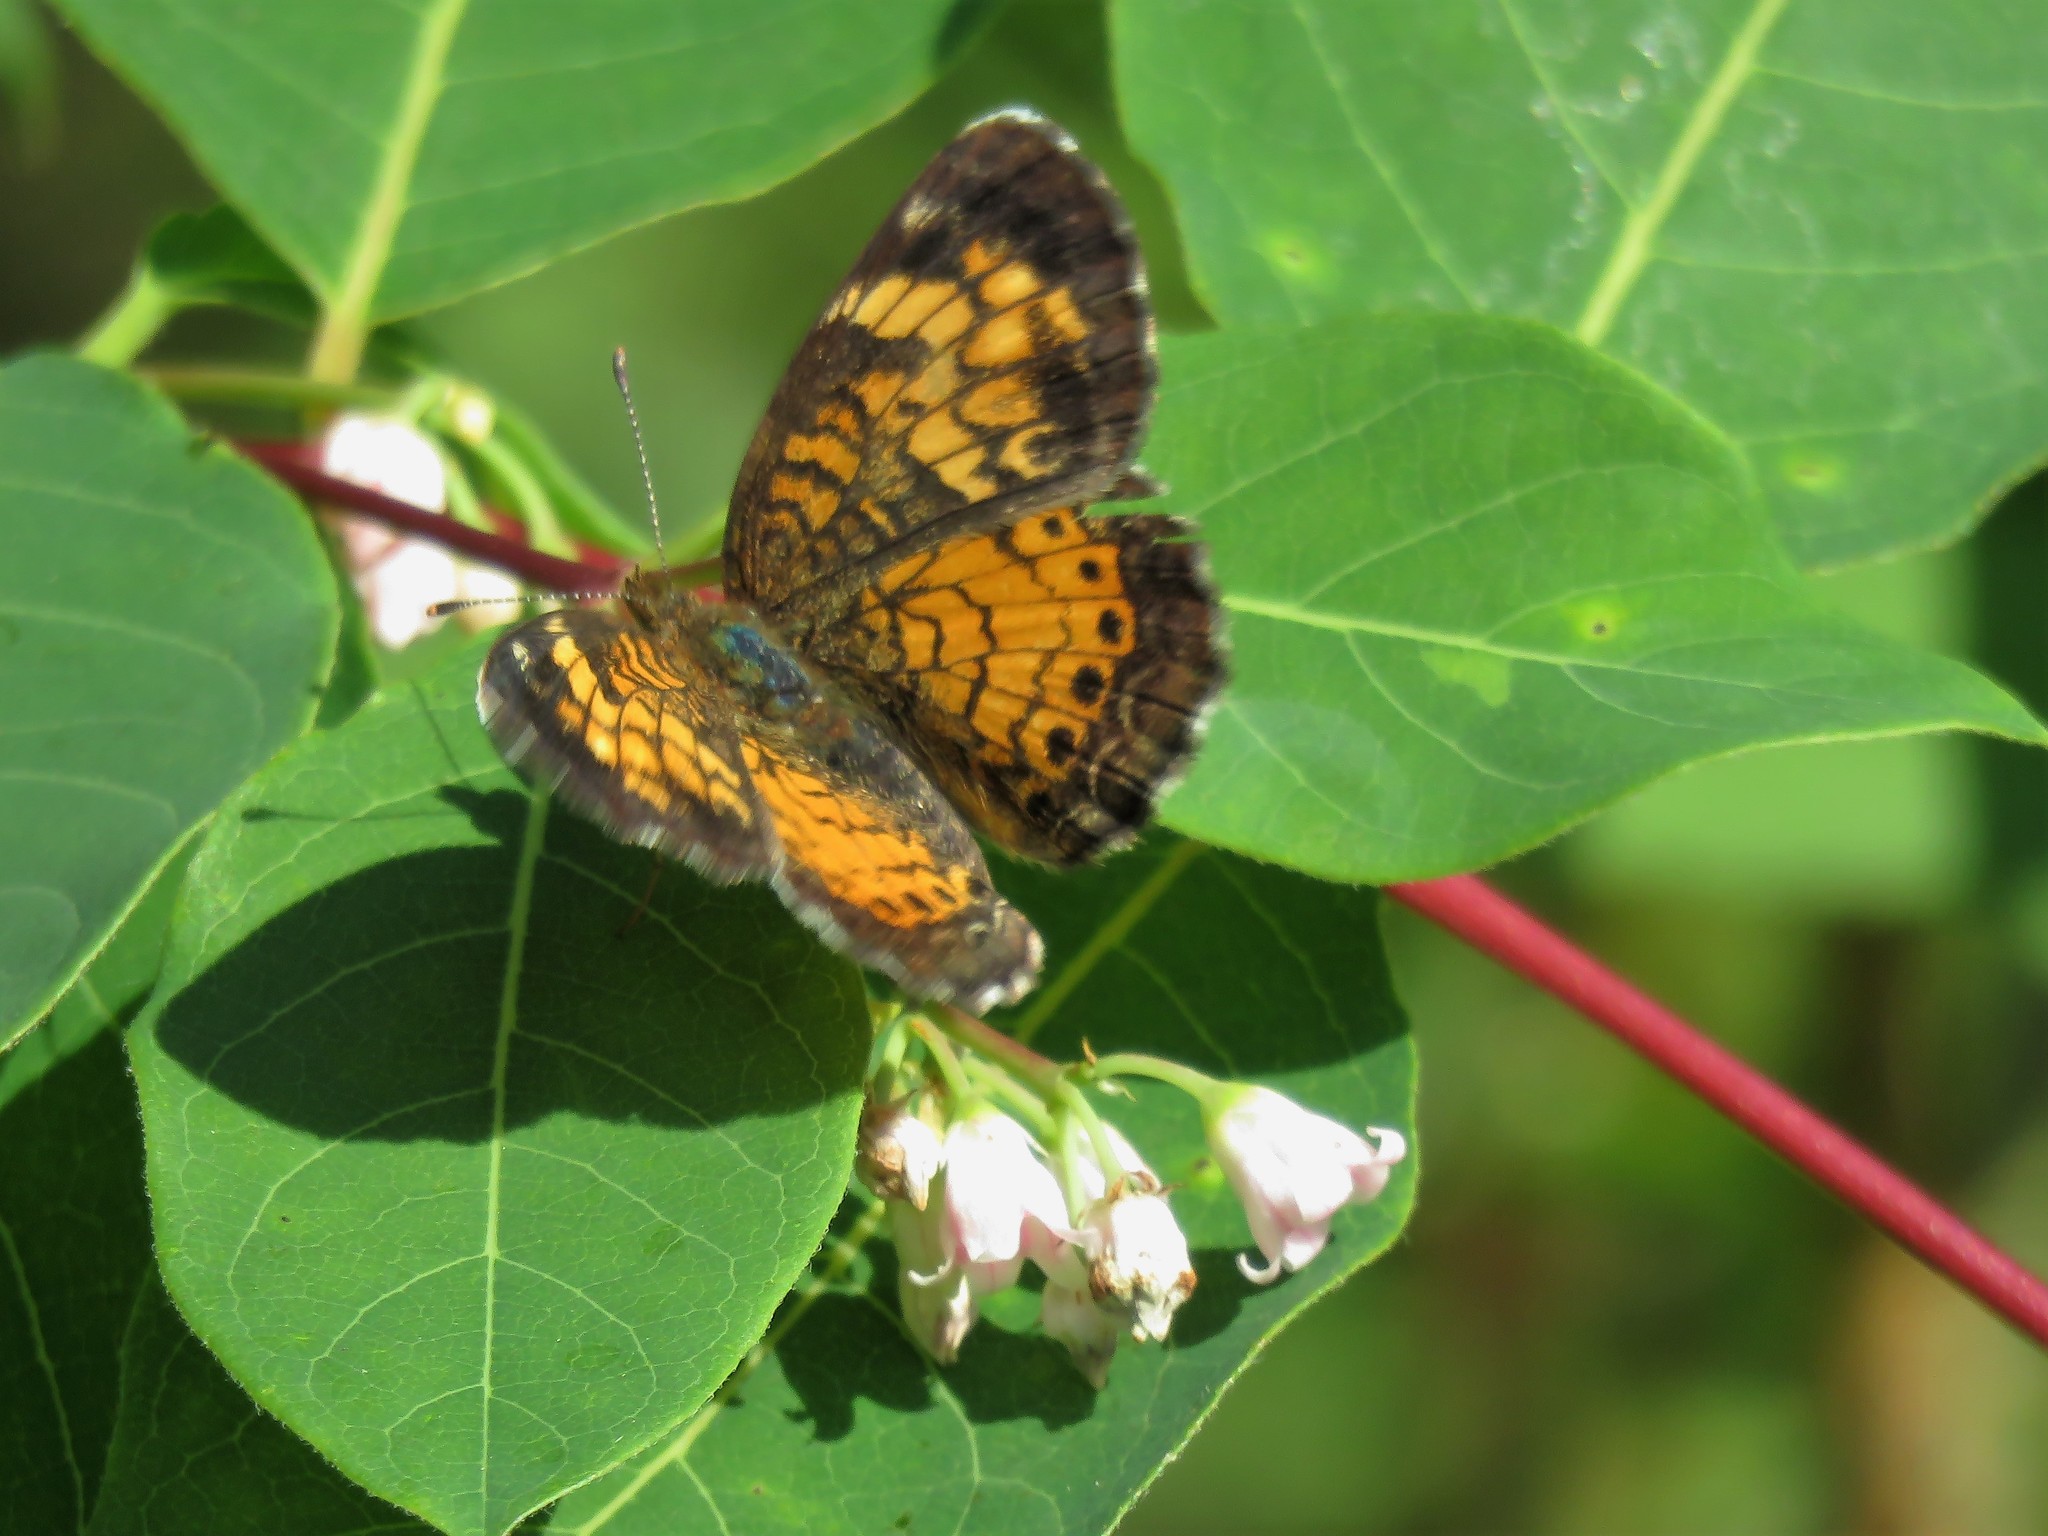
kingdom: Animalia
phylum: Arthropoda
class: Insecta
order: Lepidoptera
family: Nymphalidae
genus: Phyciodes
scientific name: Phyciodes tharos
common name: Pearl crescent
